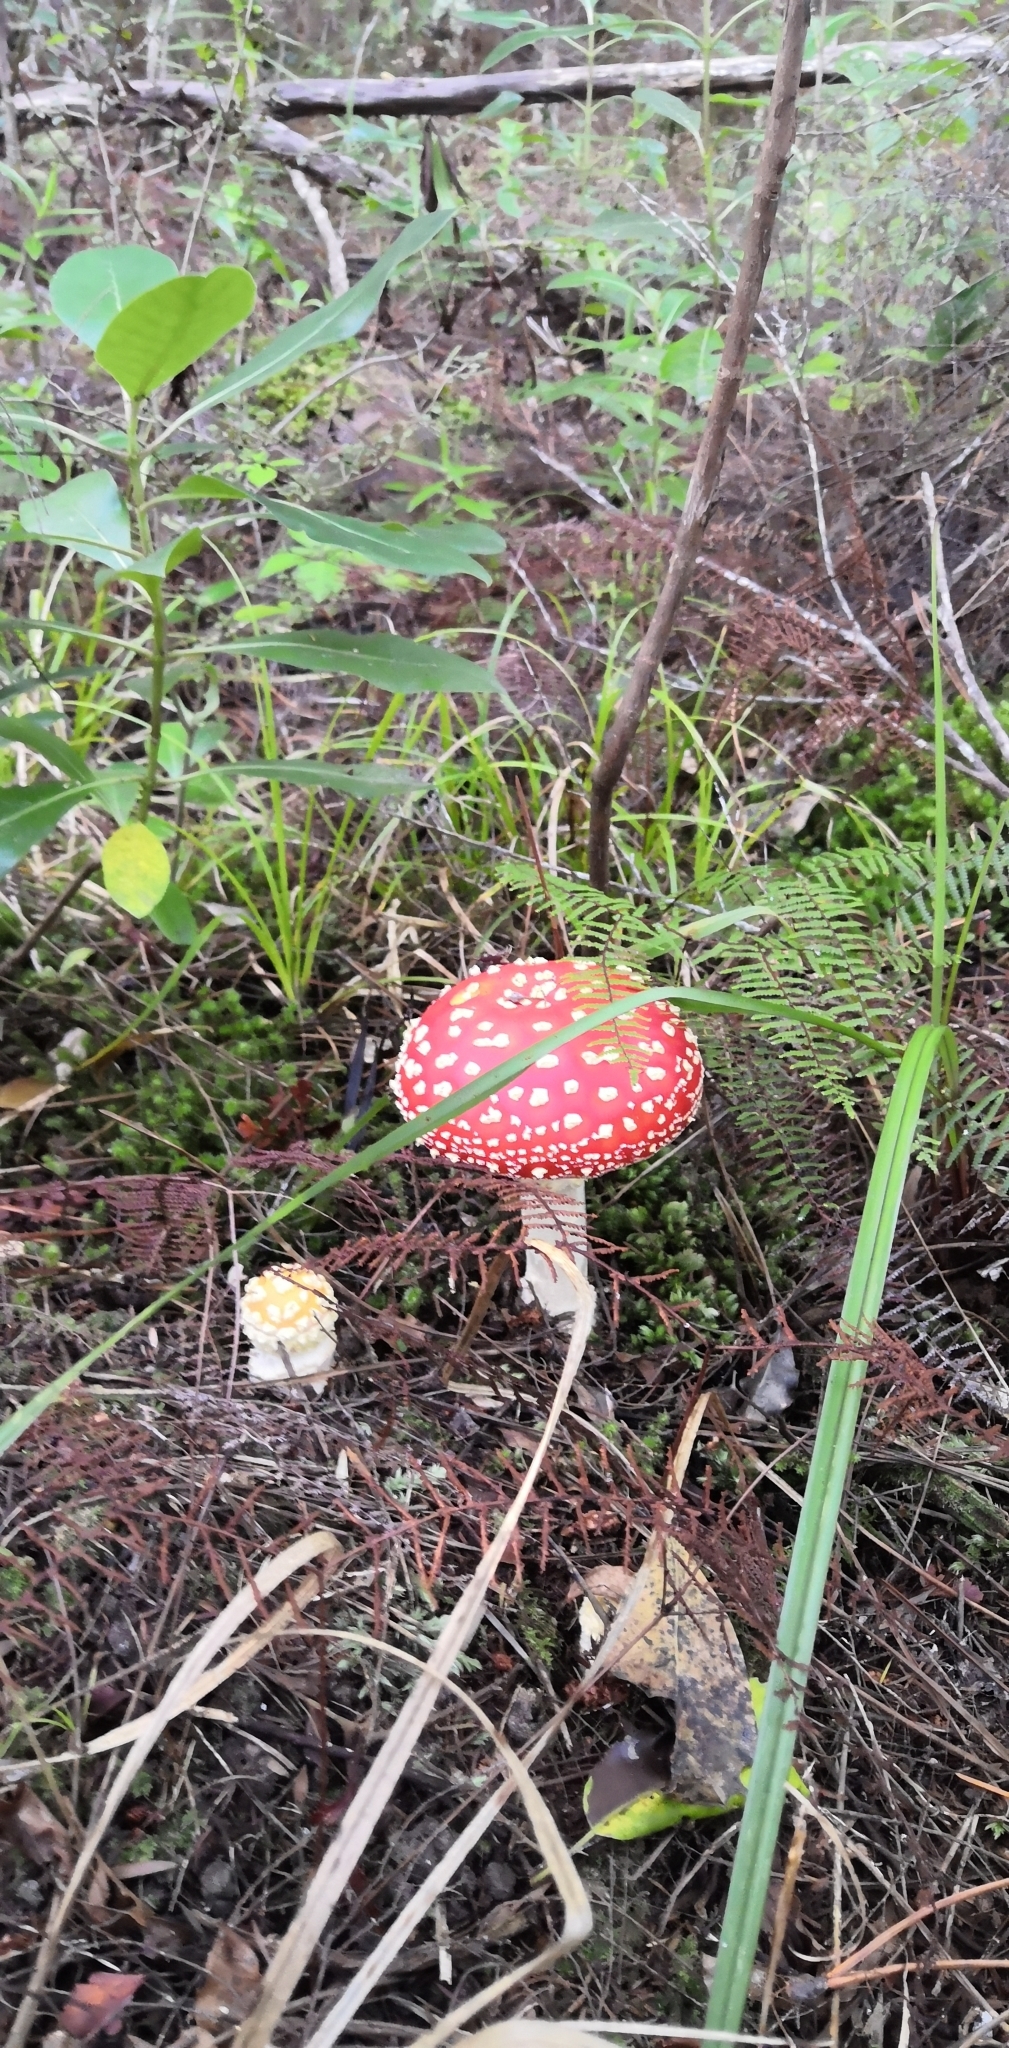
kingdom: Fungi
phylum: Basidiomycota
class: Agaricomycetes
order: Agaricales
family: Amanitaceae
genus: Amanita
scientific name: Amanita muscaria
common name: Fly agaric
